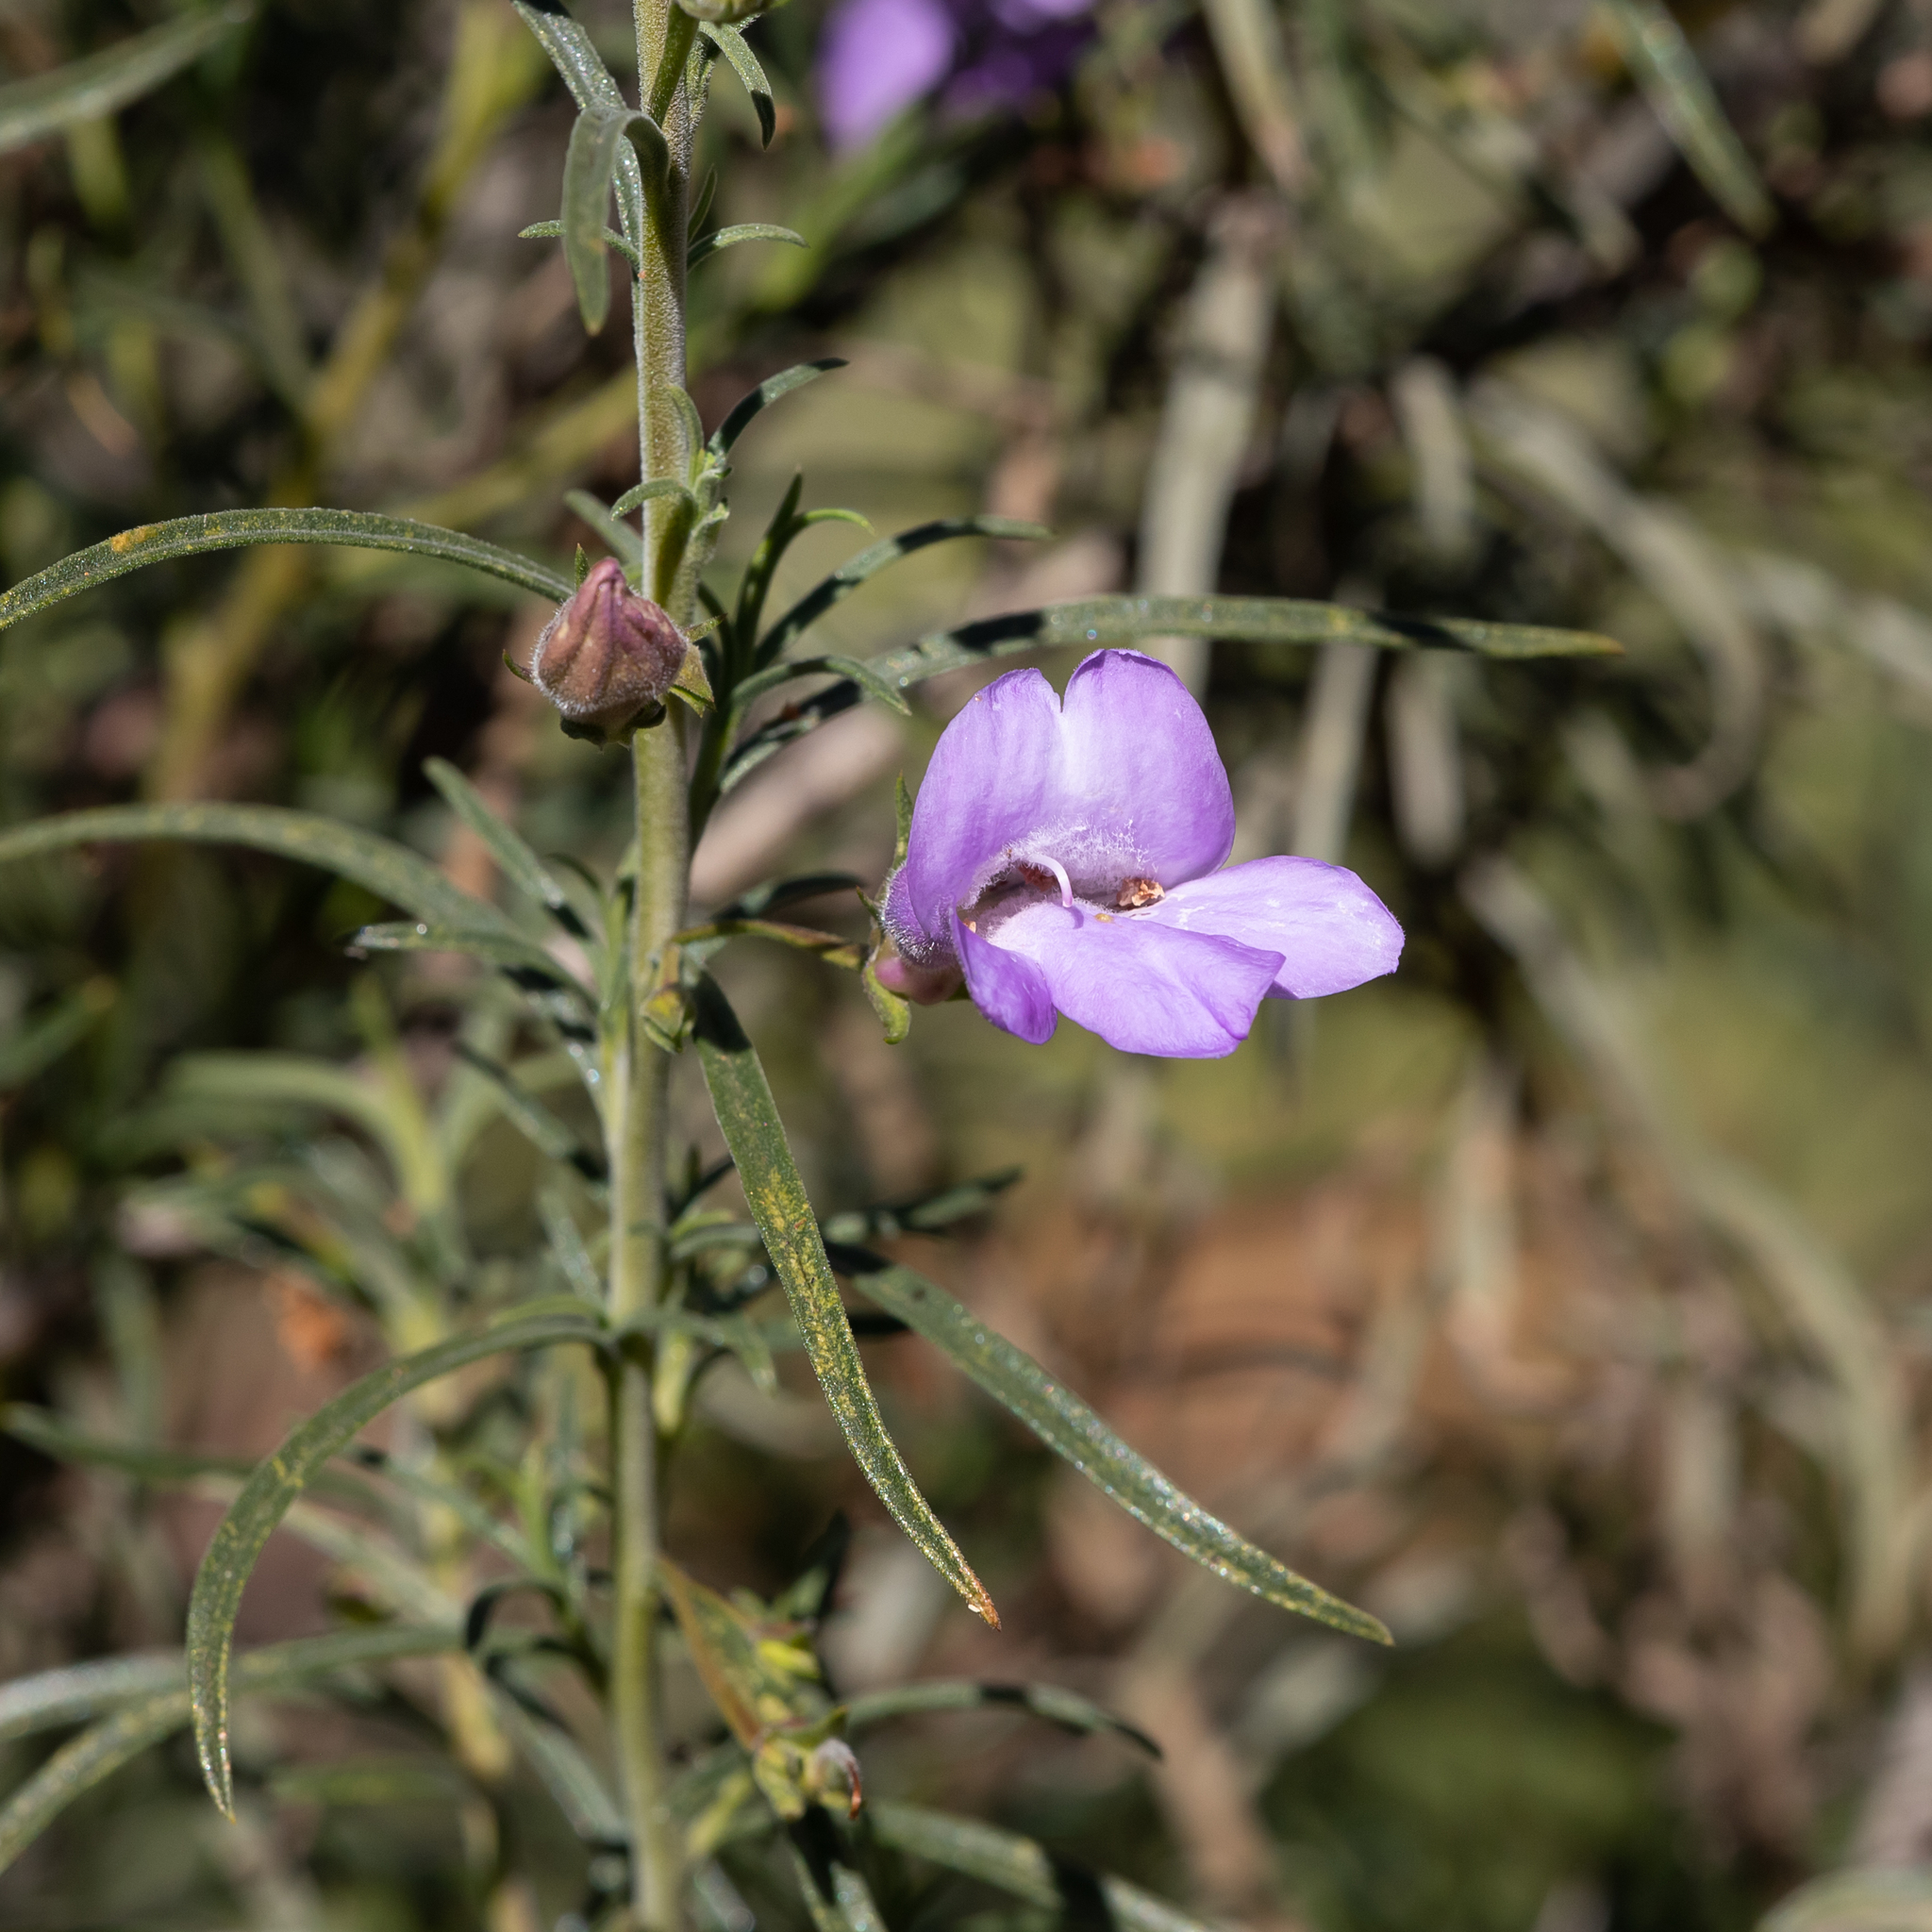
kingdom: Plantae
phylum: Tracheophyta
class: Magnoliopsida
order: Lamiales
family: Scrophulariaceae
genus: Eremophila
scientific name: Eremophila gilesii
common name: Desert fuchsia
